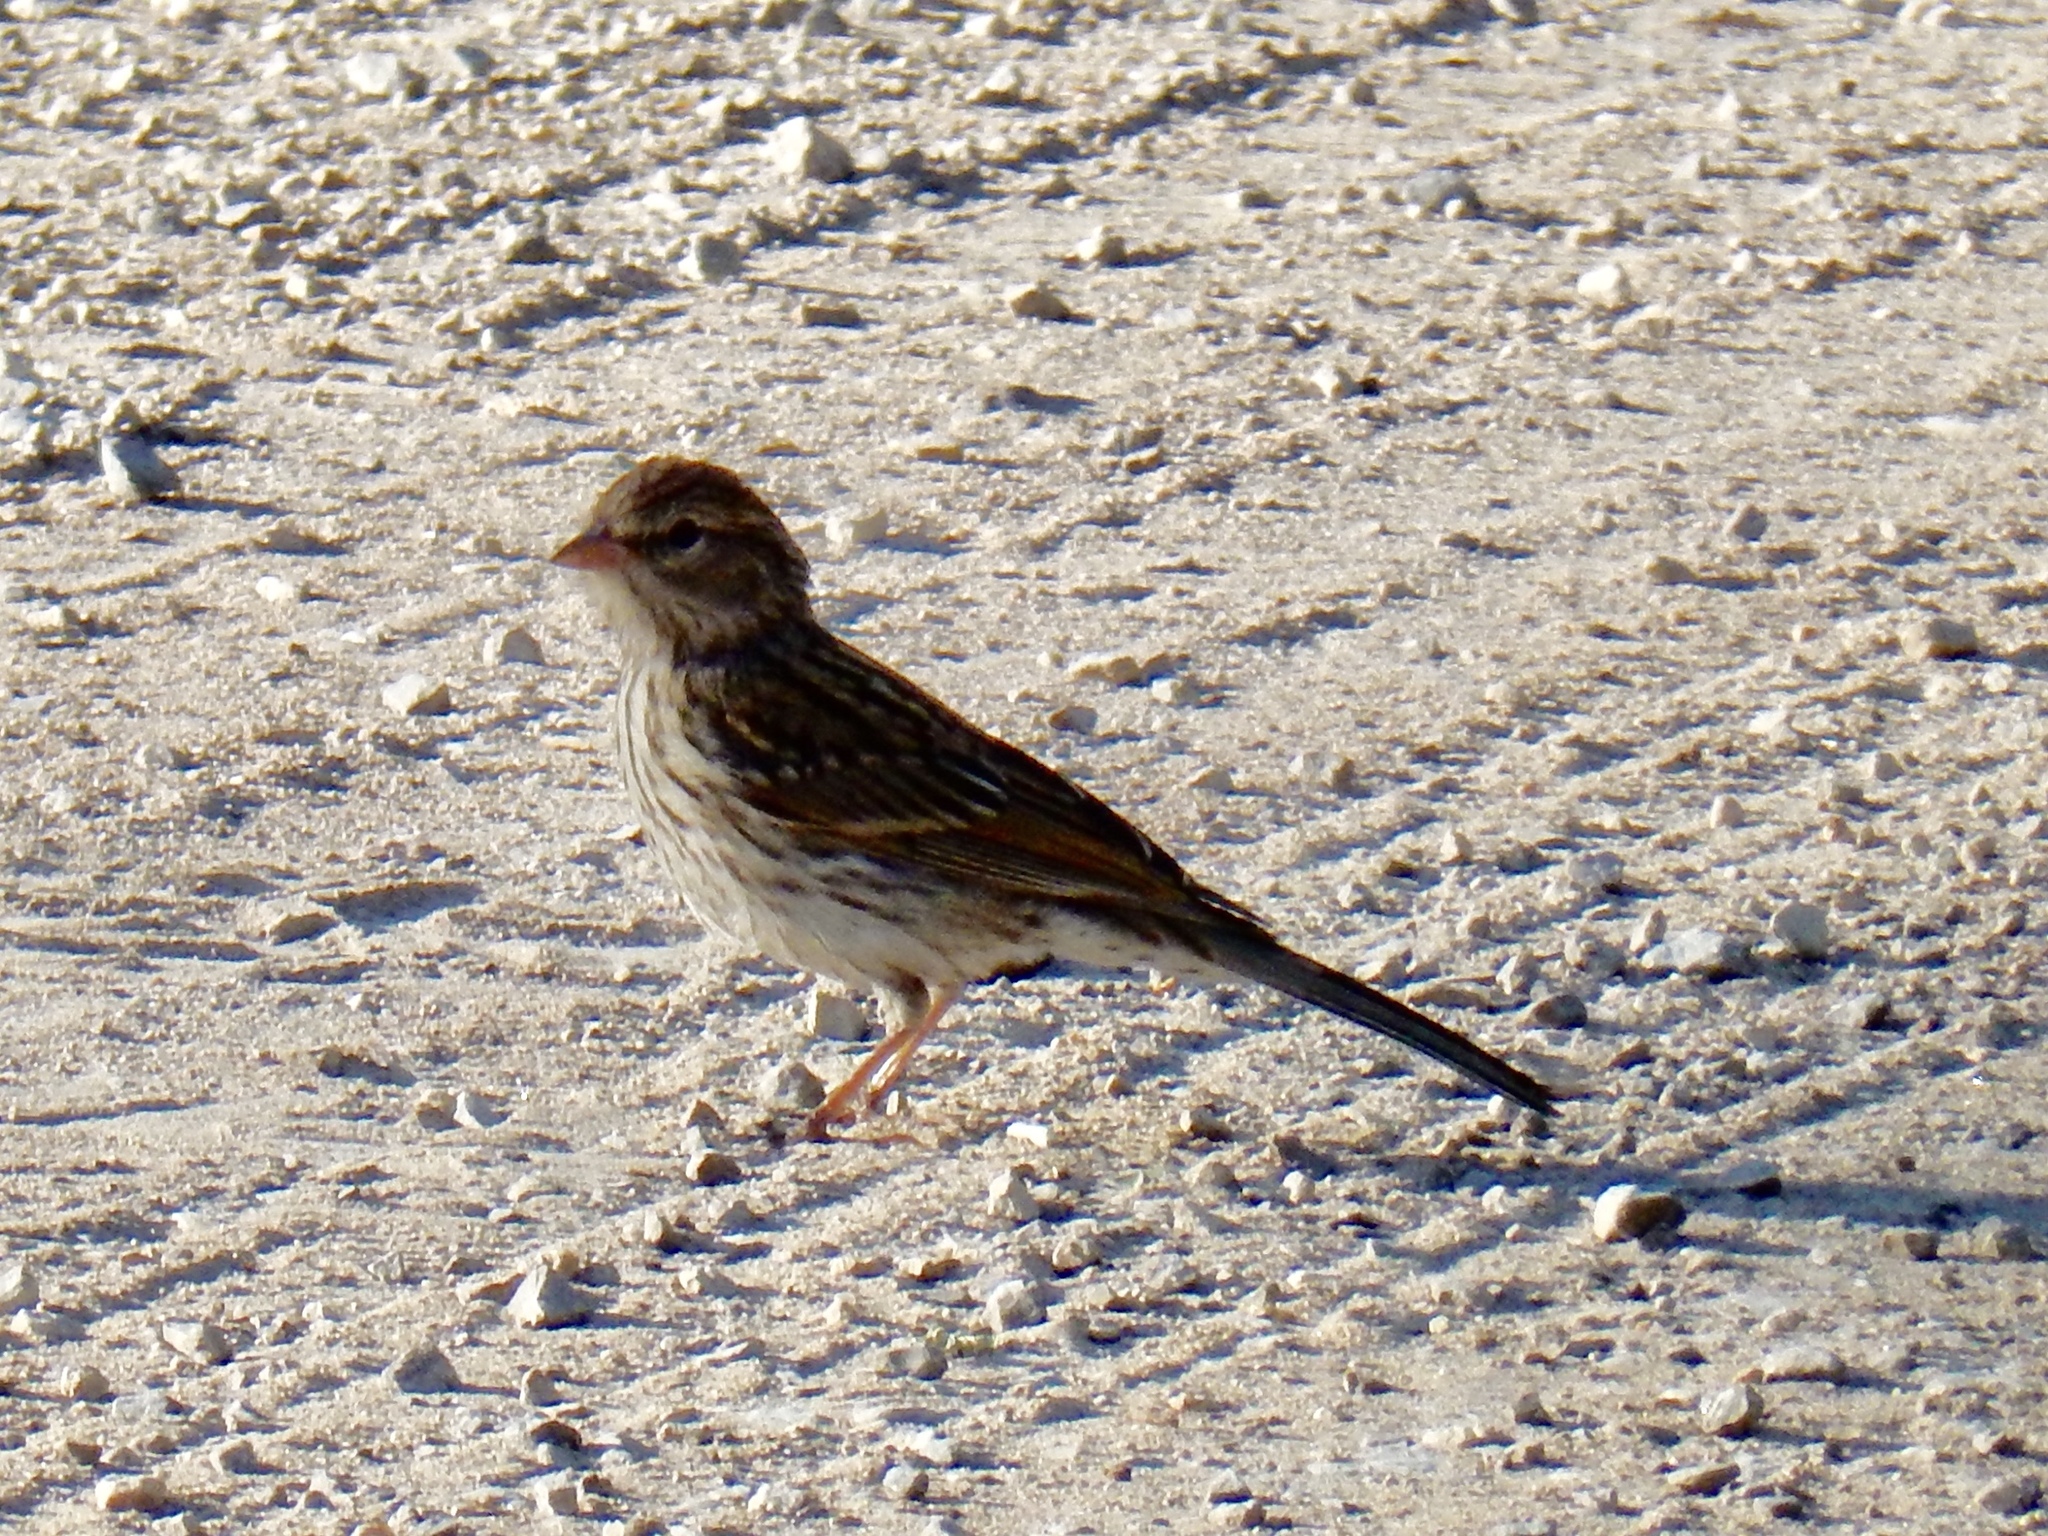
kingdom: Animalia
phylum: Chordata
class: Aves
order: Passeriformes
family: Passerellidae
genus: Spizella
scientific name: Spizella passerina
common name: Chipping sparrow
